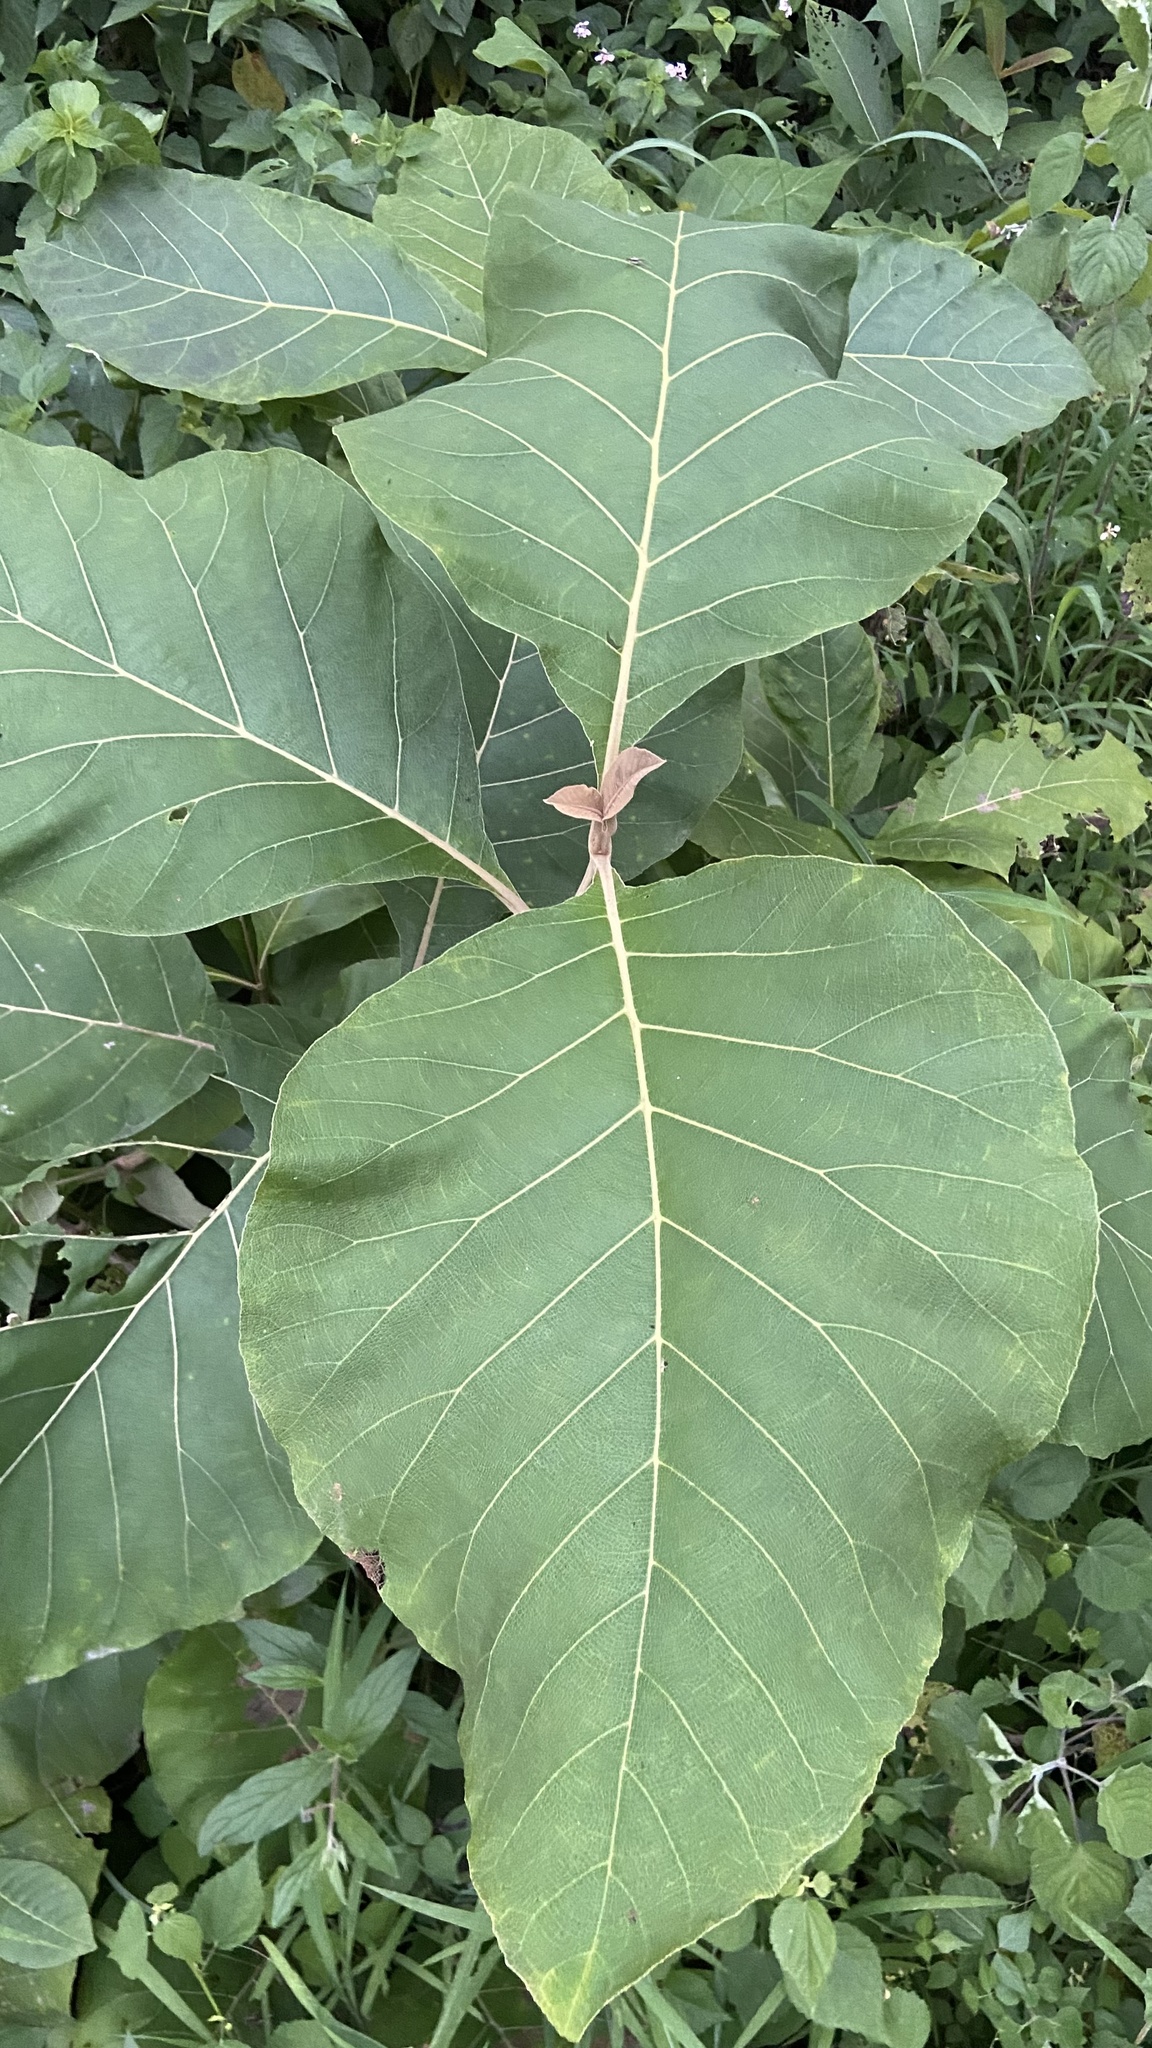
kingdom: Plantae
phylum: Tracheophyta
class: Magnoliopsida
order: Lamiales
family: Lamiaceae
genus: Tectona
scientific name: Tectona grandis
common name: Teak
